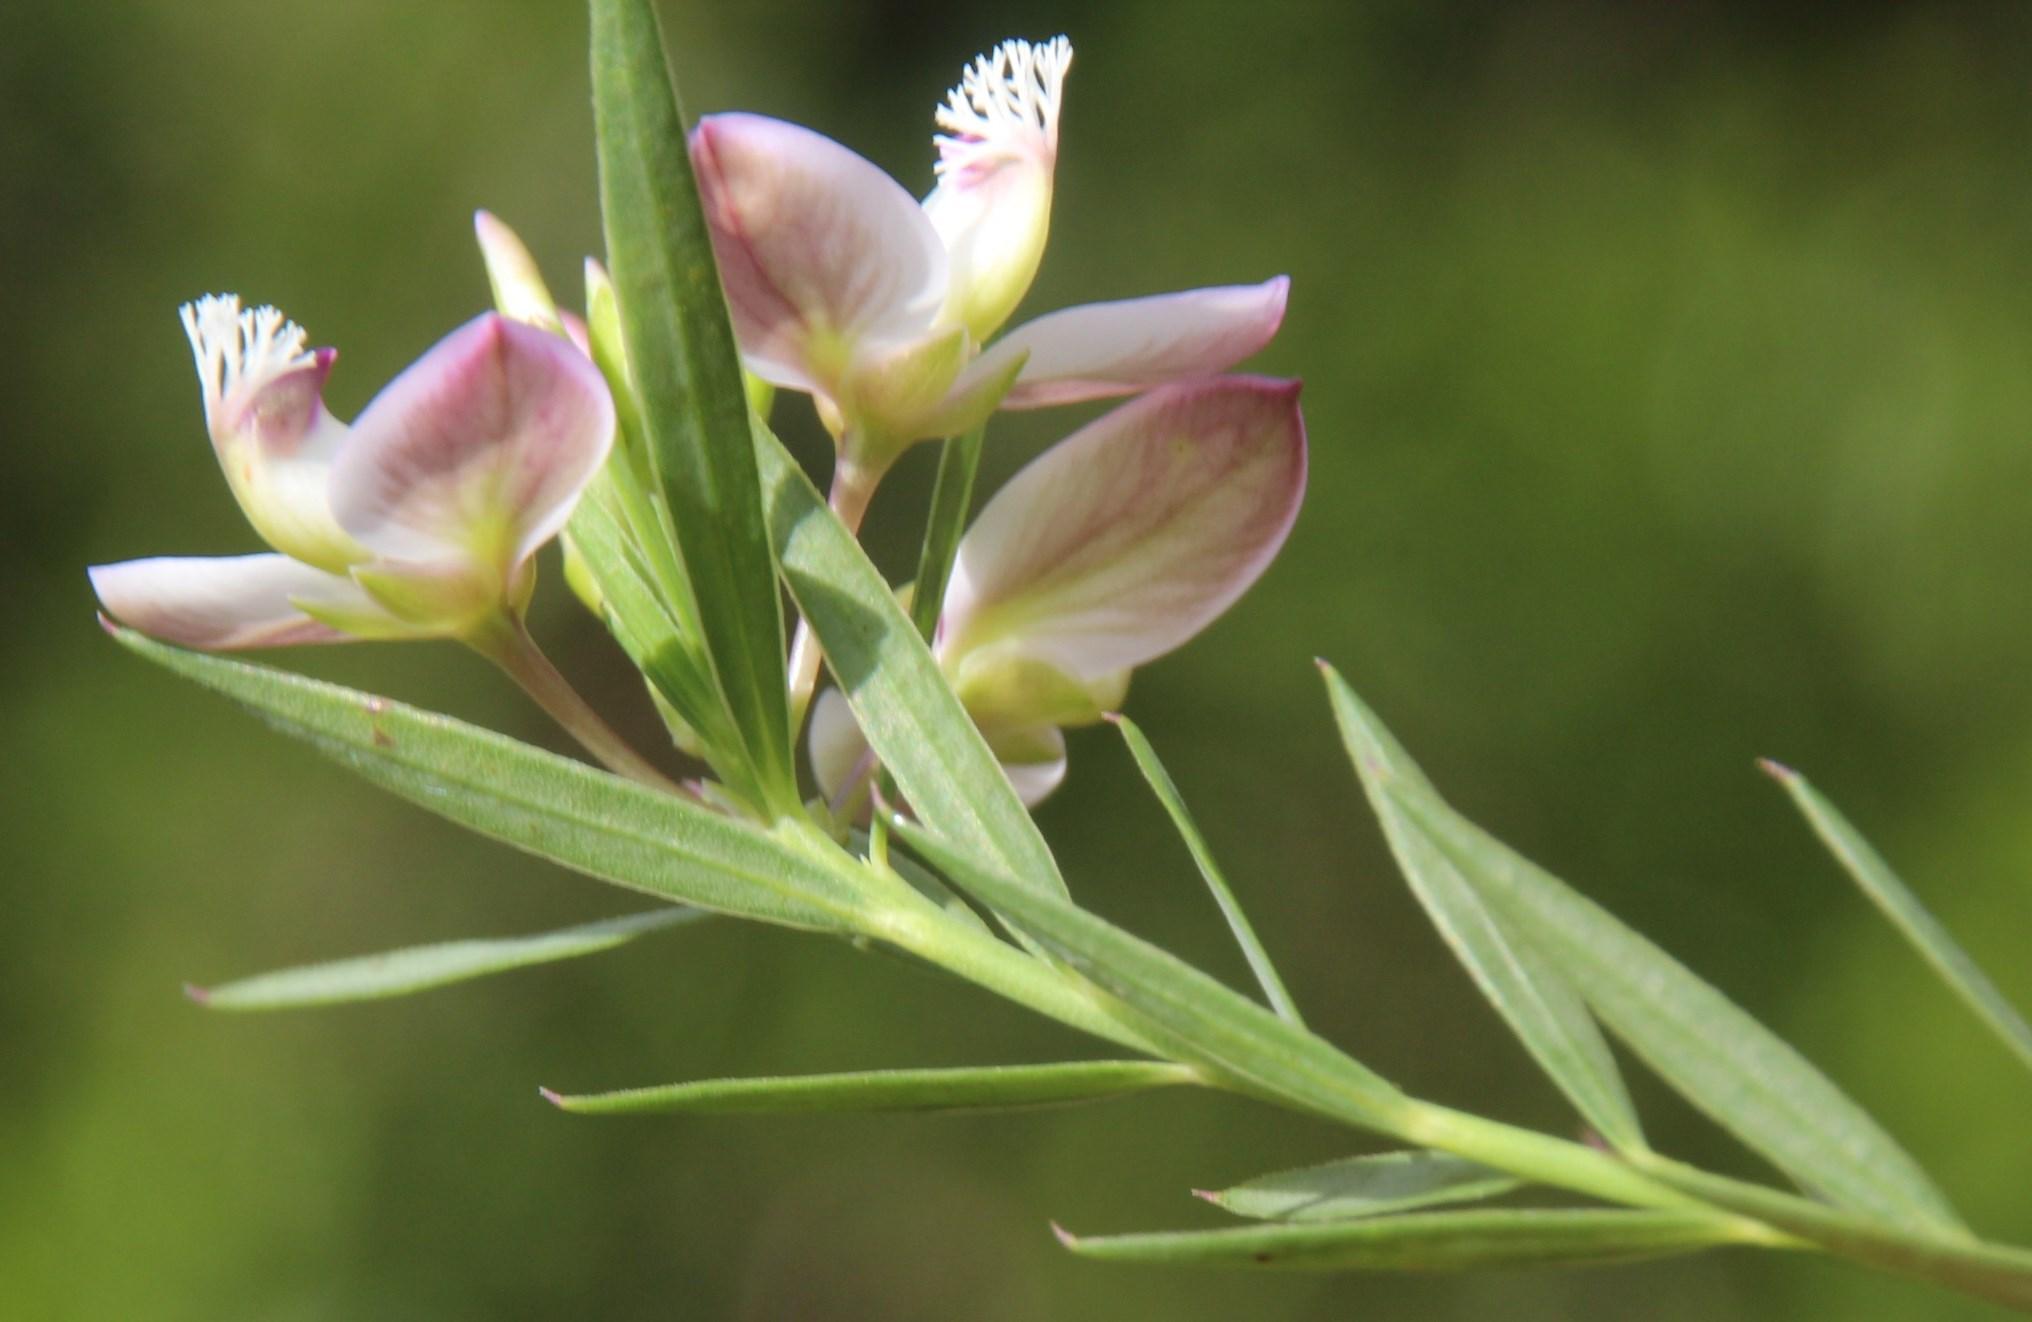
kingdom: Plantae
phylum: Tracheophyta
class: Magnoliopsida
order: Fabales
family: Polygalaceae
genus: Polygala
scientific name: Polygala langebergensis
